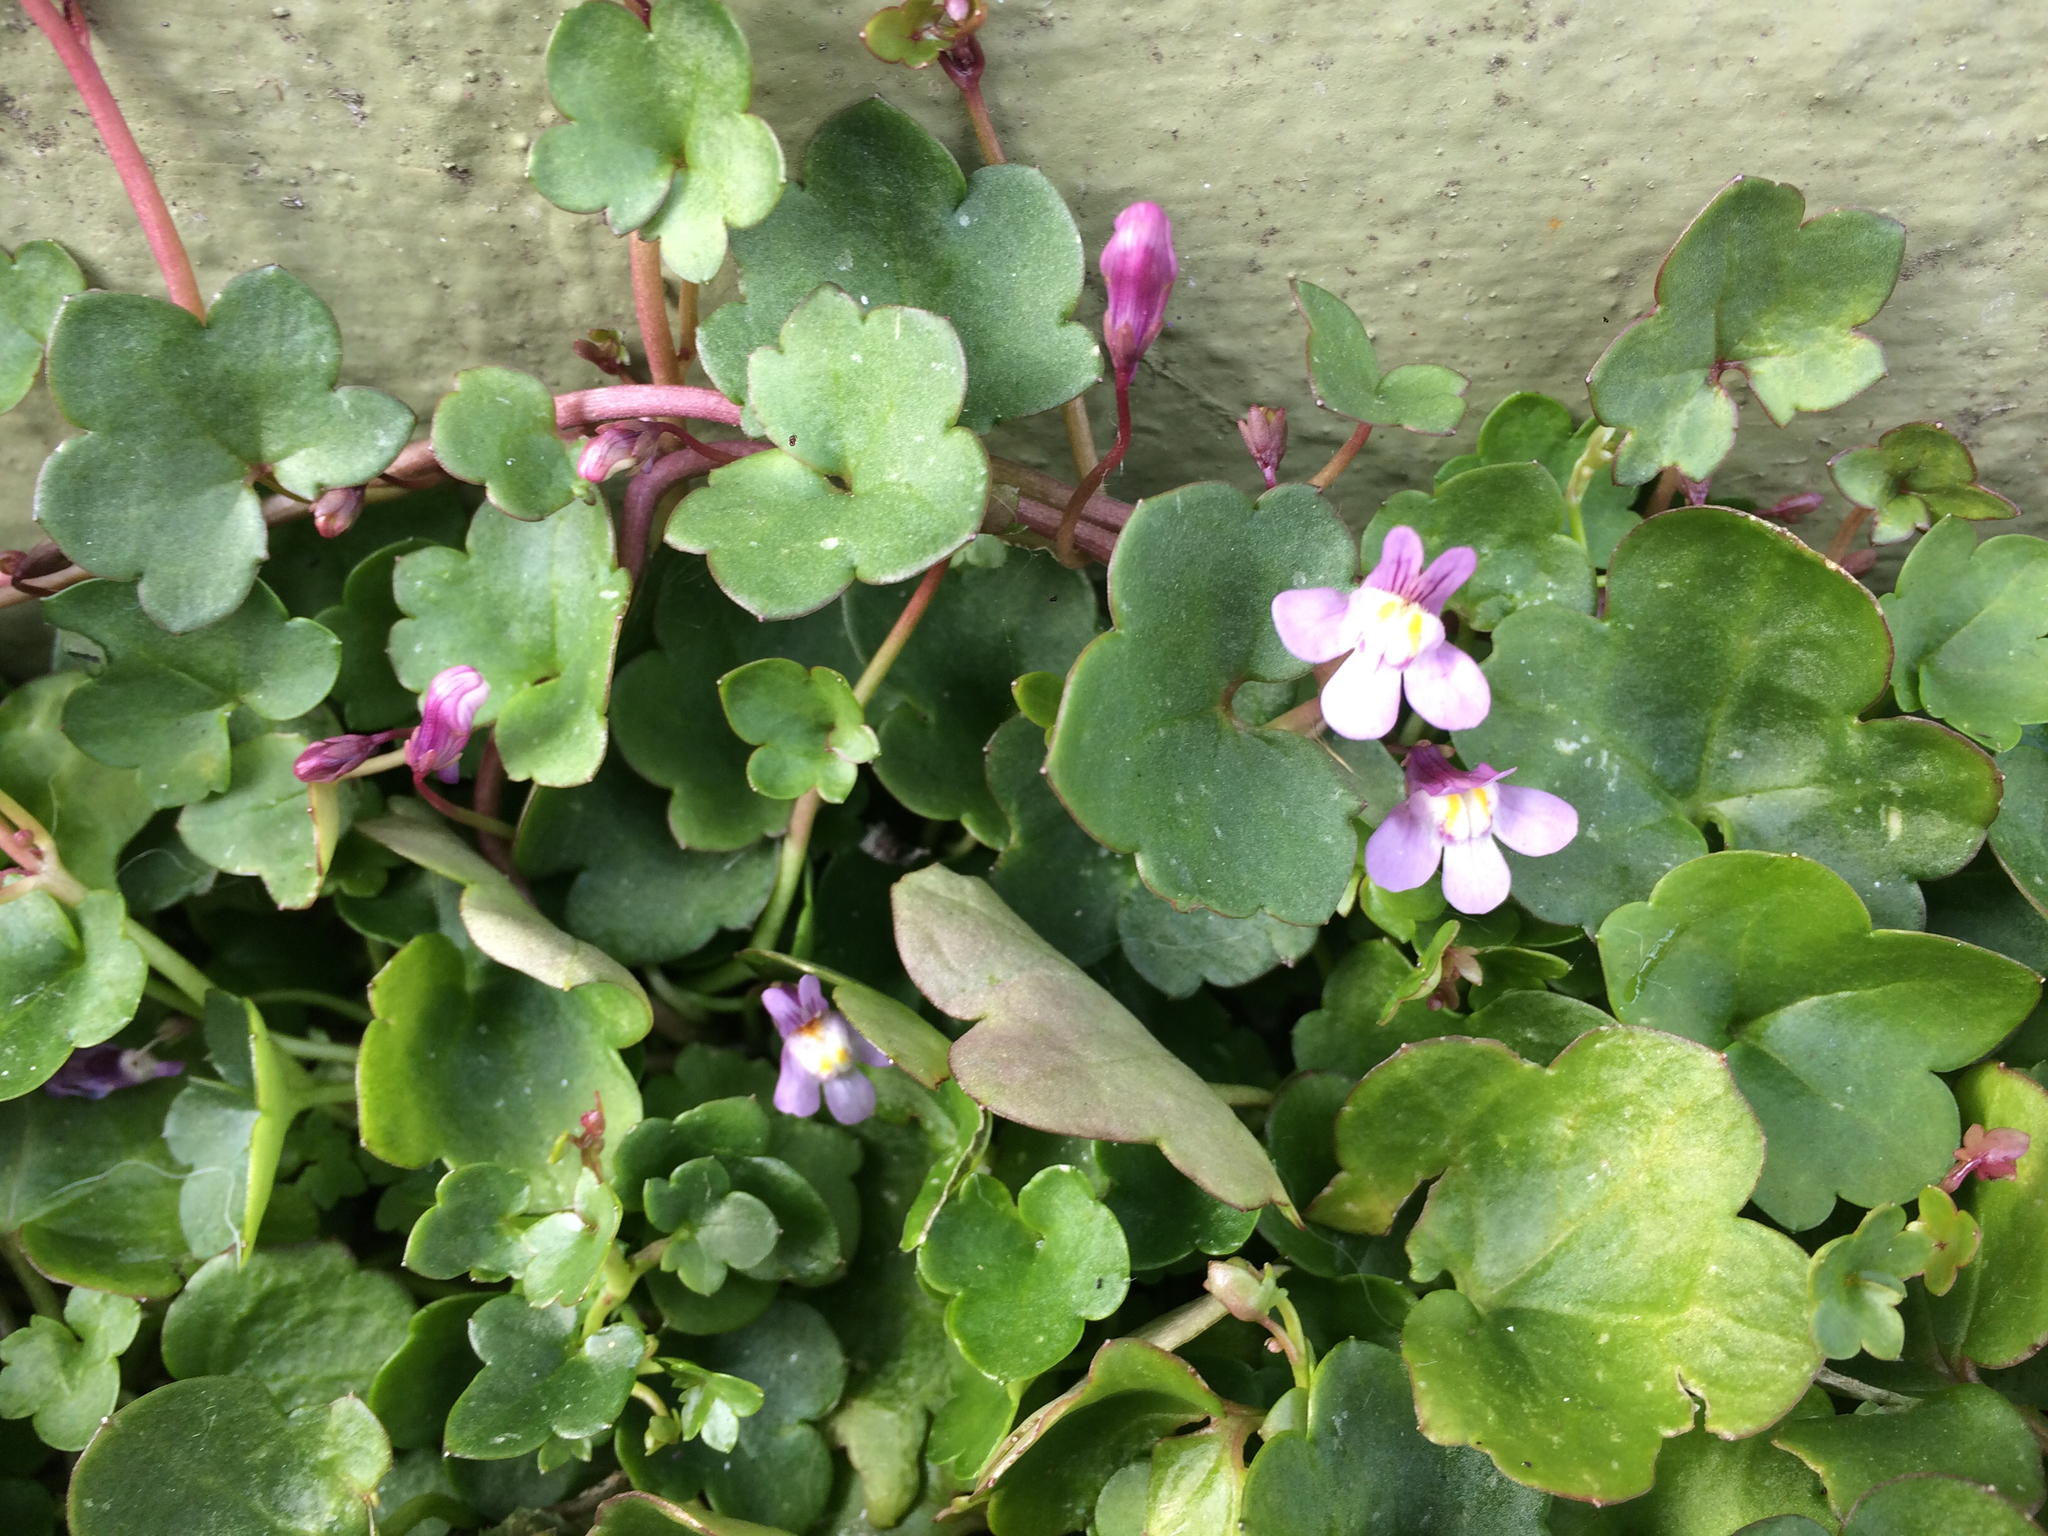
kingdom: Plantae
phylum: Tracheophyta
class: Magnoliopsida
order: Lamiales
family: Plantaginaceae
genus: Cymbalaria
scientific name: Cymbalaria muralis
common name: Ivy-leaved toadflax
